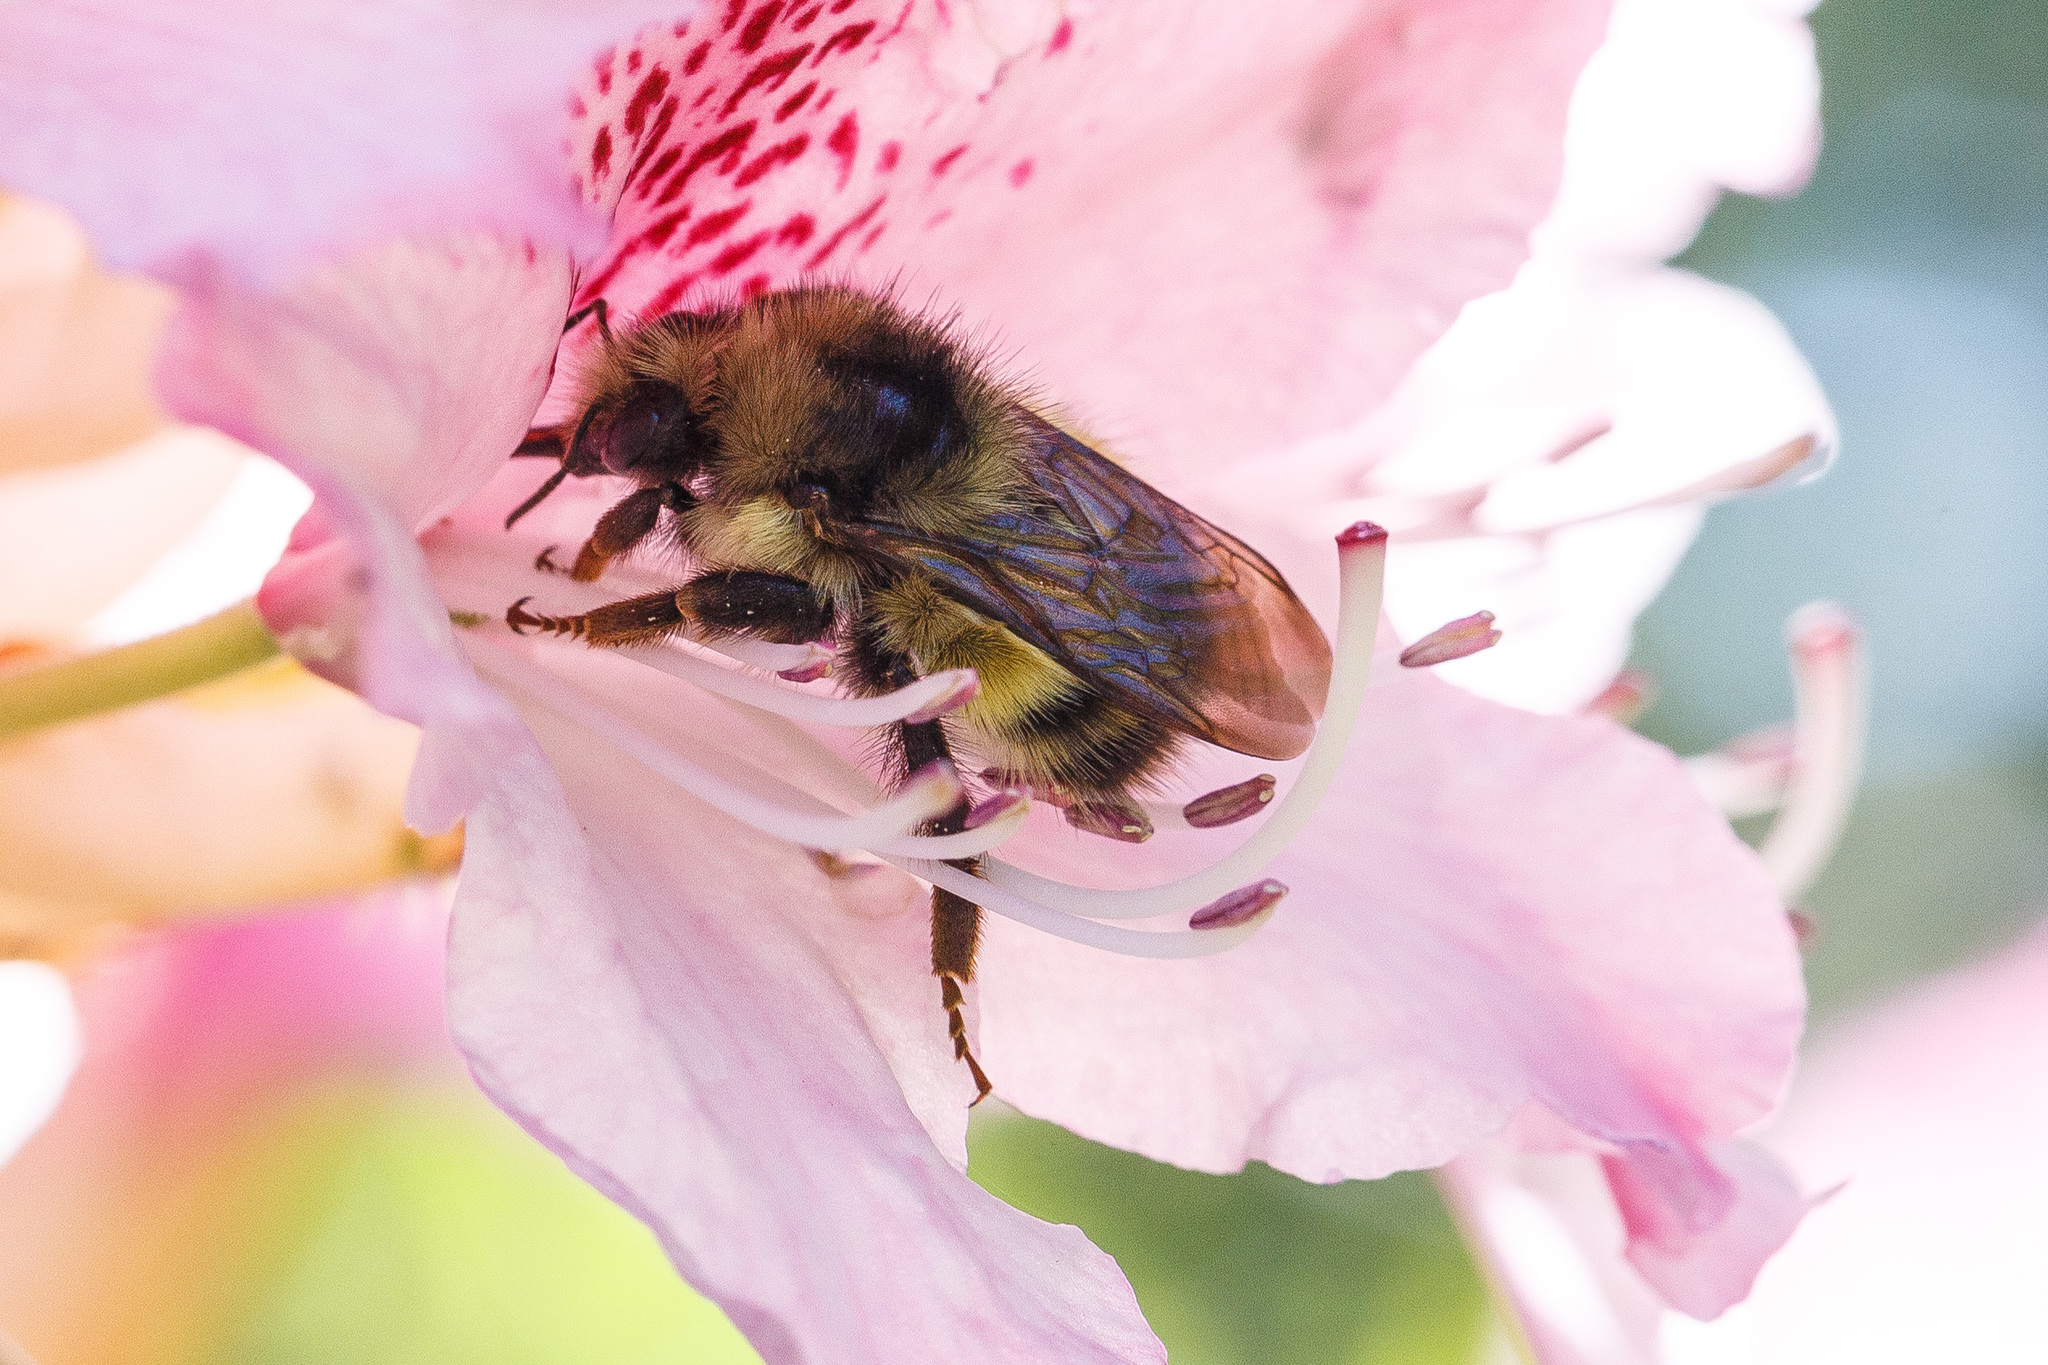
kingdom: Animalia
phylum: Arthropoda
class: Insecta
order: Hymenoptera
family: Apidae
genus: Bombus
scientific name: Bombus sitkensis
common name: Sitka bumble bee
